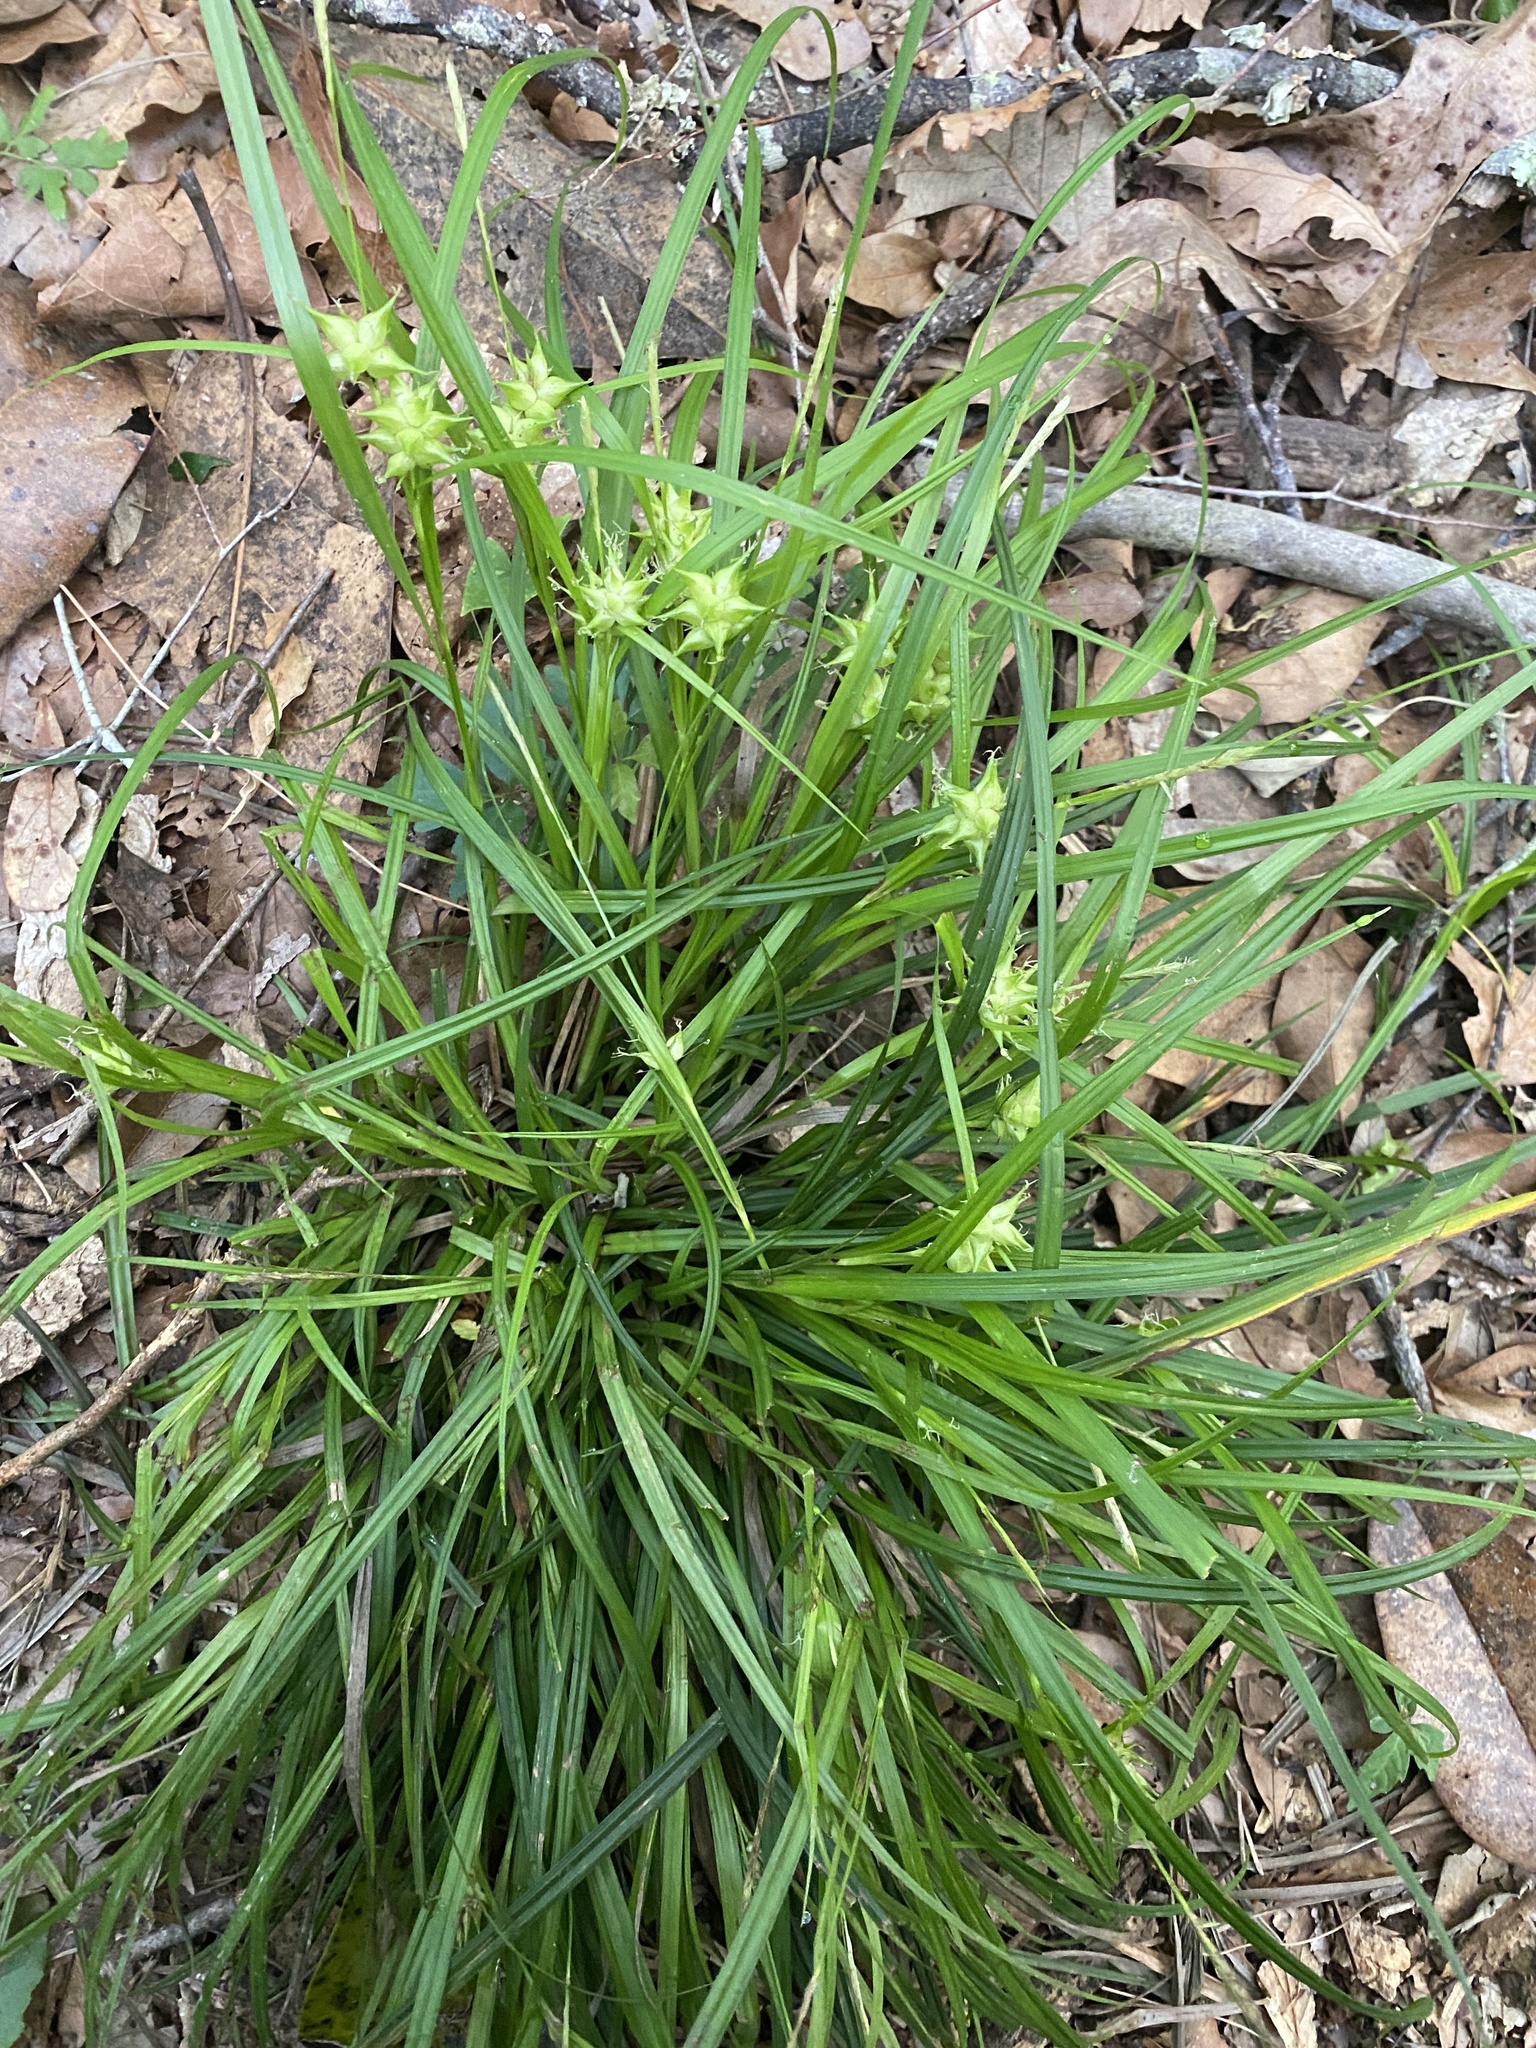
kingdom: Plantae
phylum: Tracheophyta
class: Liliopsida
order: Poales
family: Cyperaceae
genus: Carex
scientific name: Carex intumescens
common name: Greater bladder sedge
